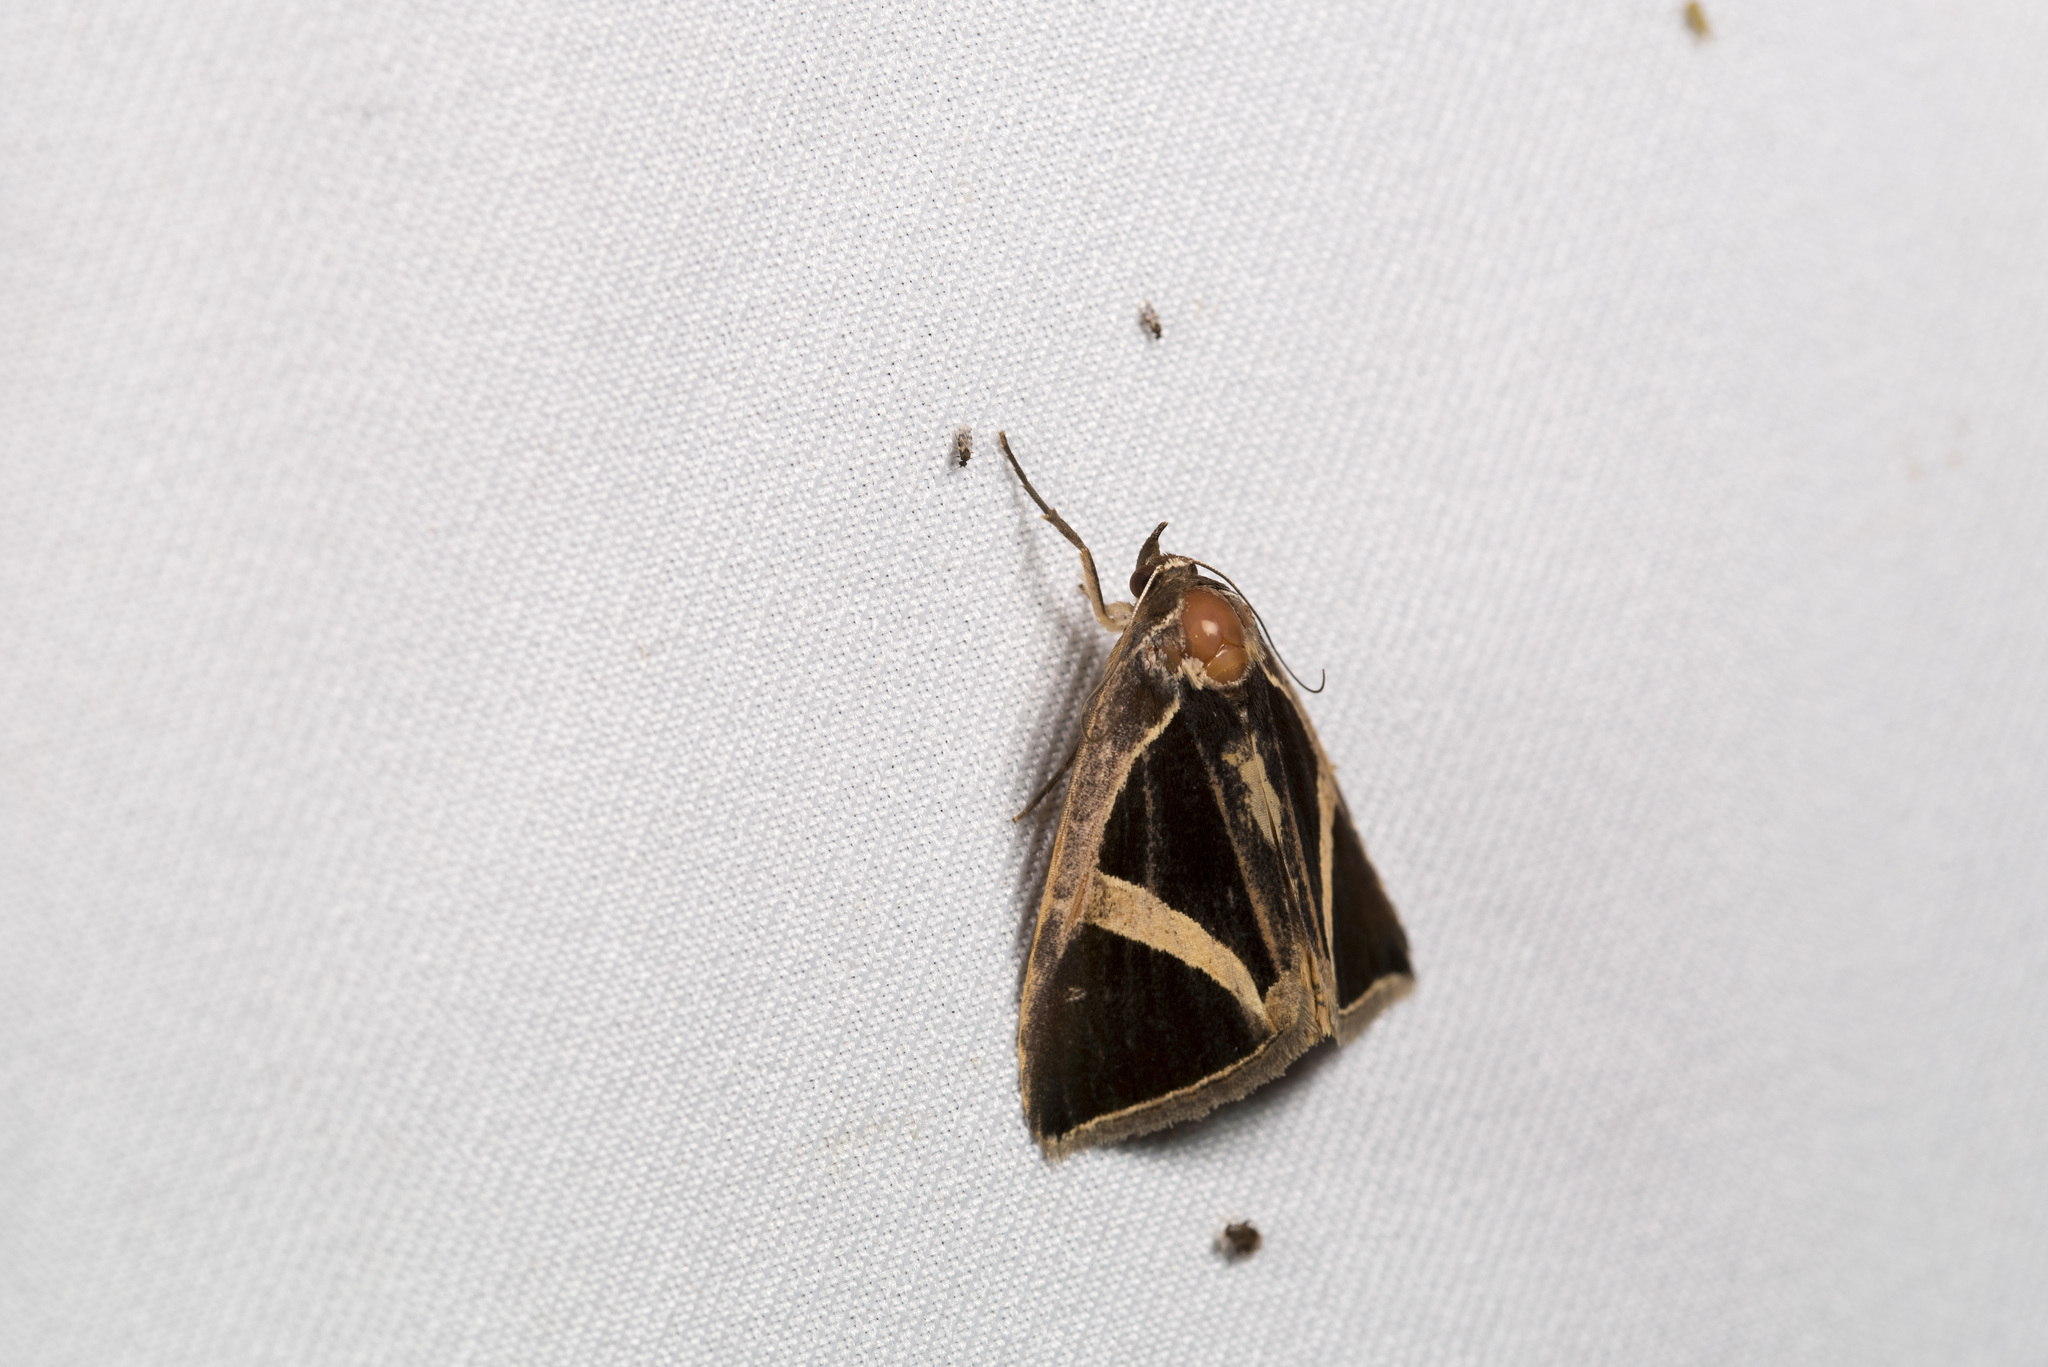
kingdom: Animalia
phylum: Arthropoda
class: Insecta
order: Lepidoptera
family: Erebidae
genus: Fodina
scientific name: Fodina kosemponis
